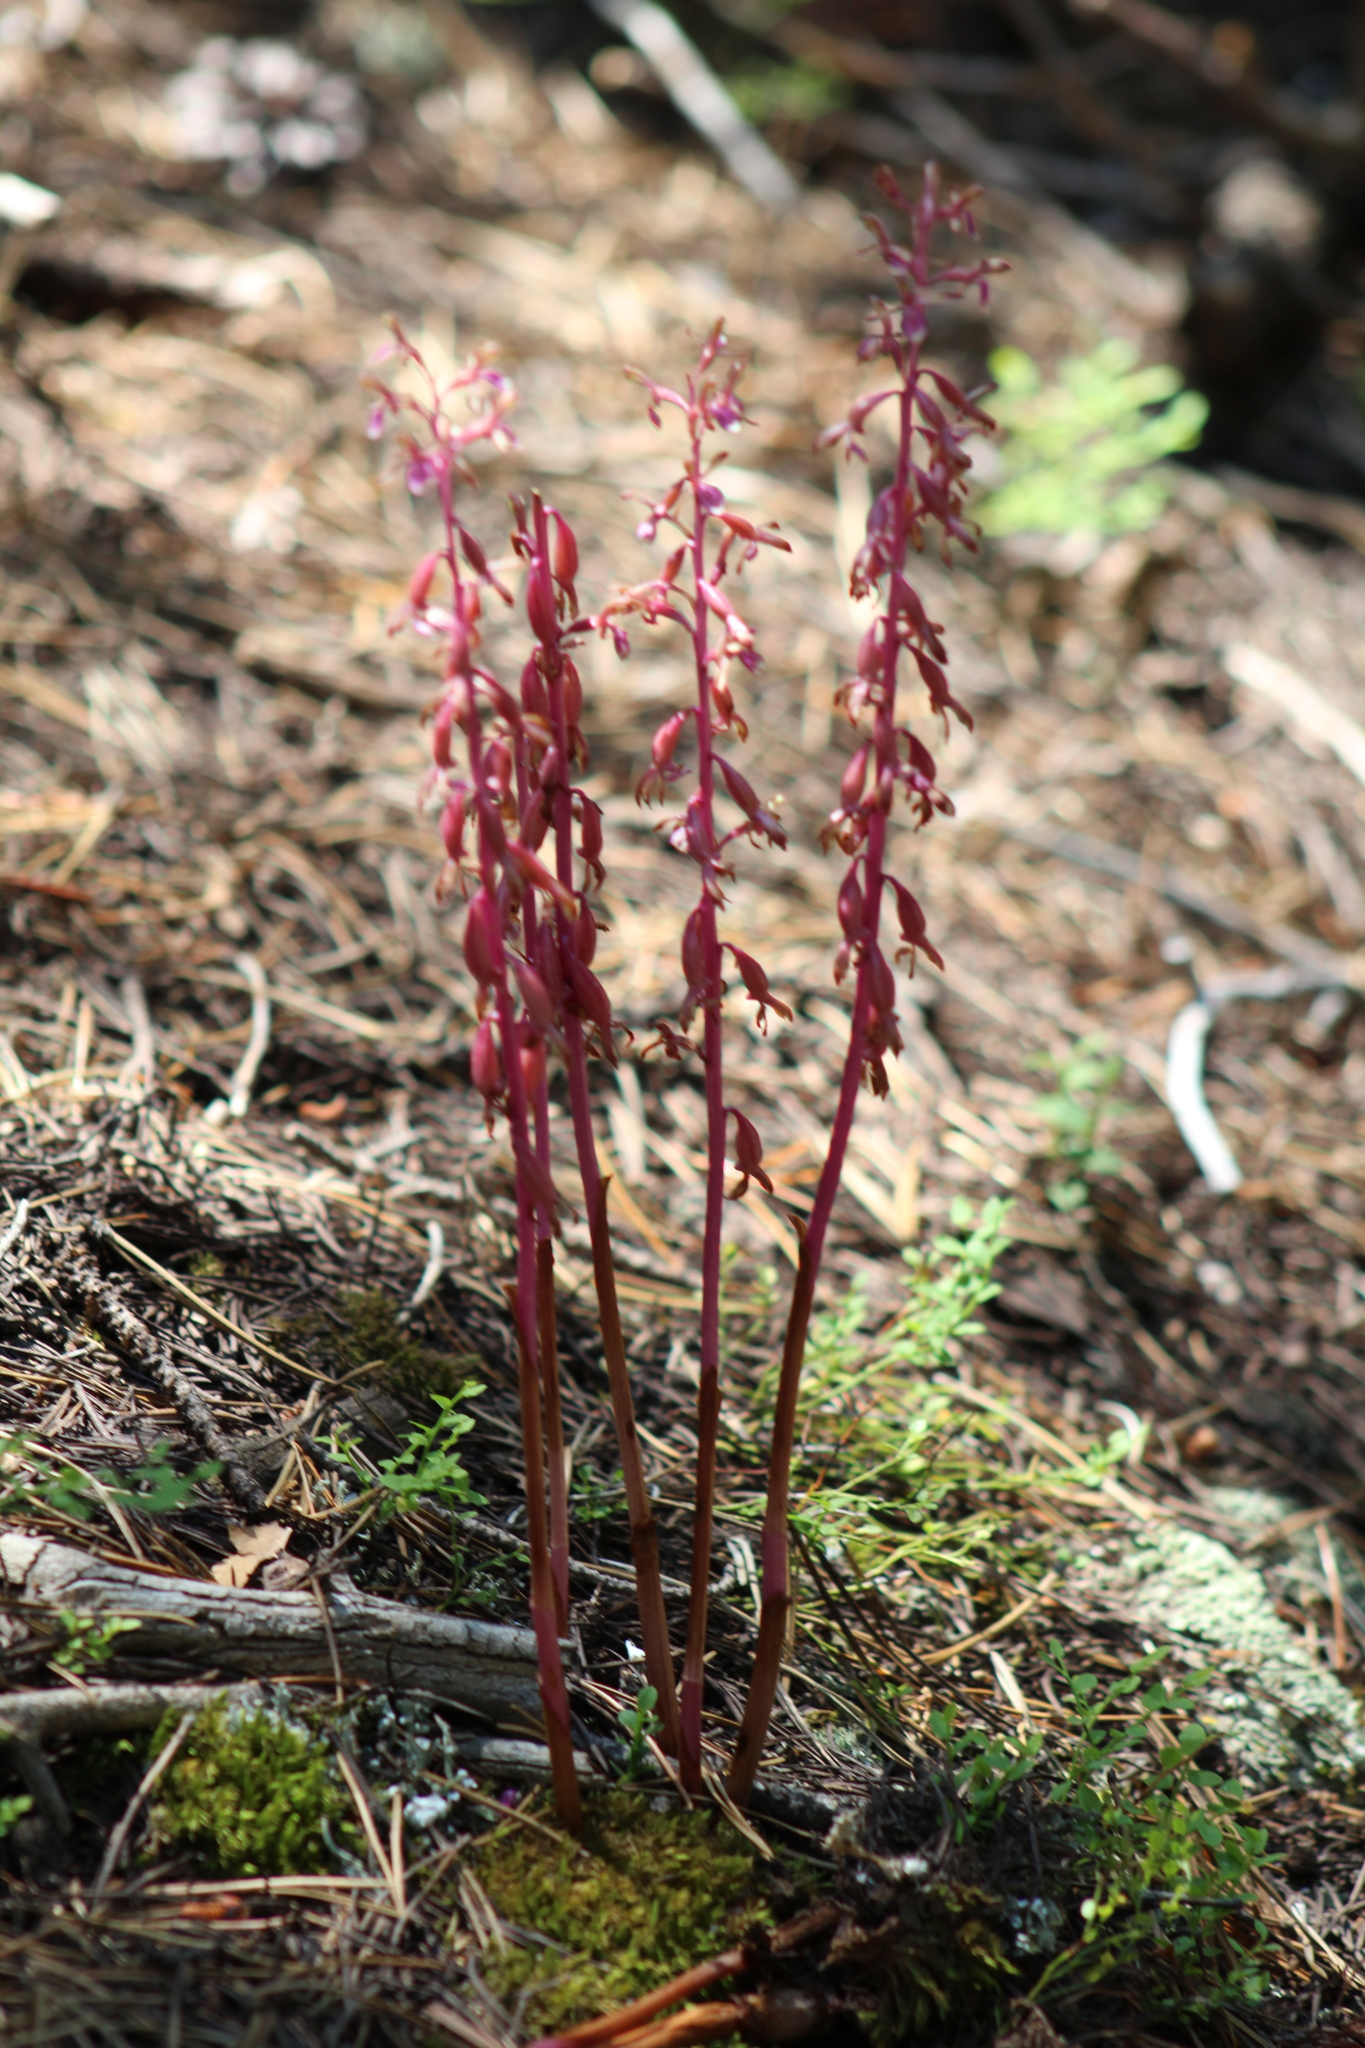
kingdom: Plantae
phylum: Tracheophyta
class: Liliopsida
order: Asparagales
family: Orchidaceae
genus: Corallorhiza
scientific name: Corallorhiza mertensiana
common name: Pacific coralroot
